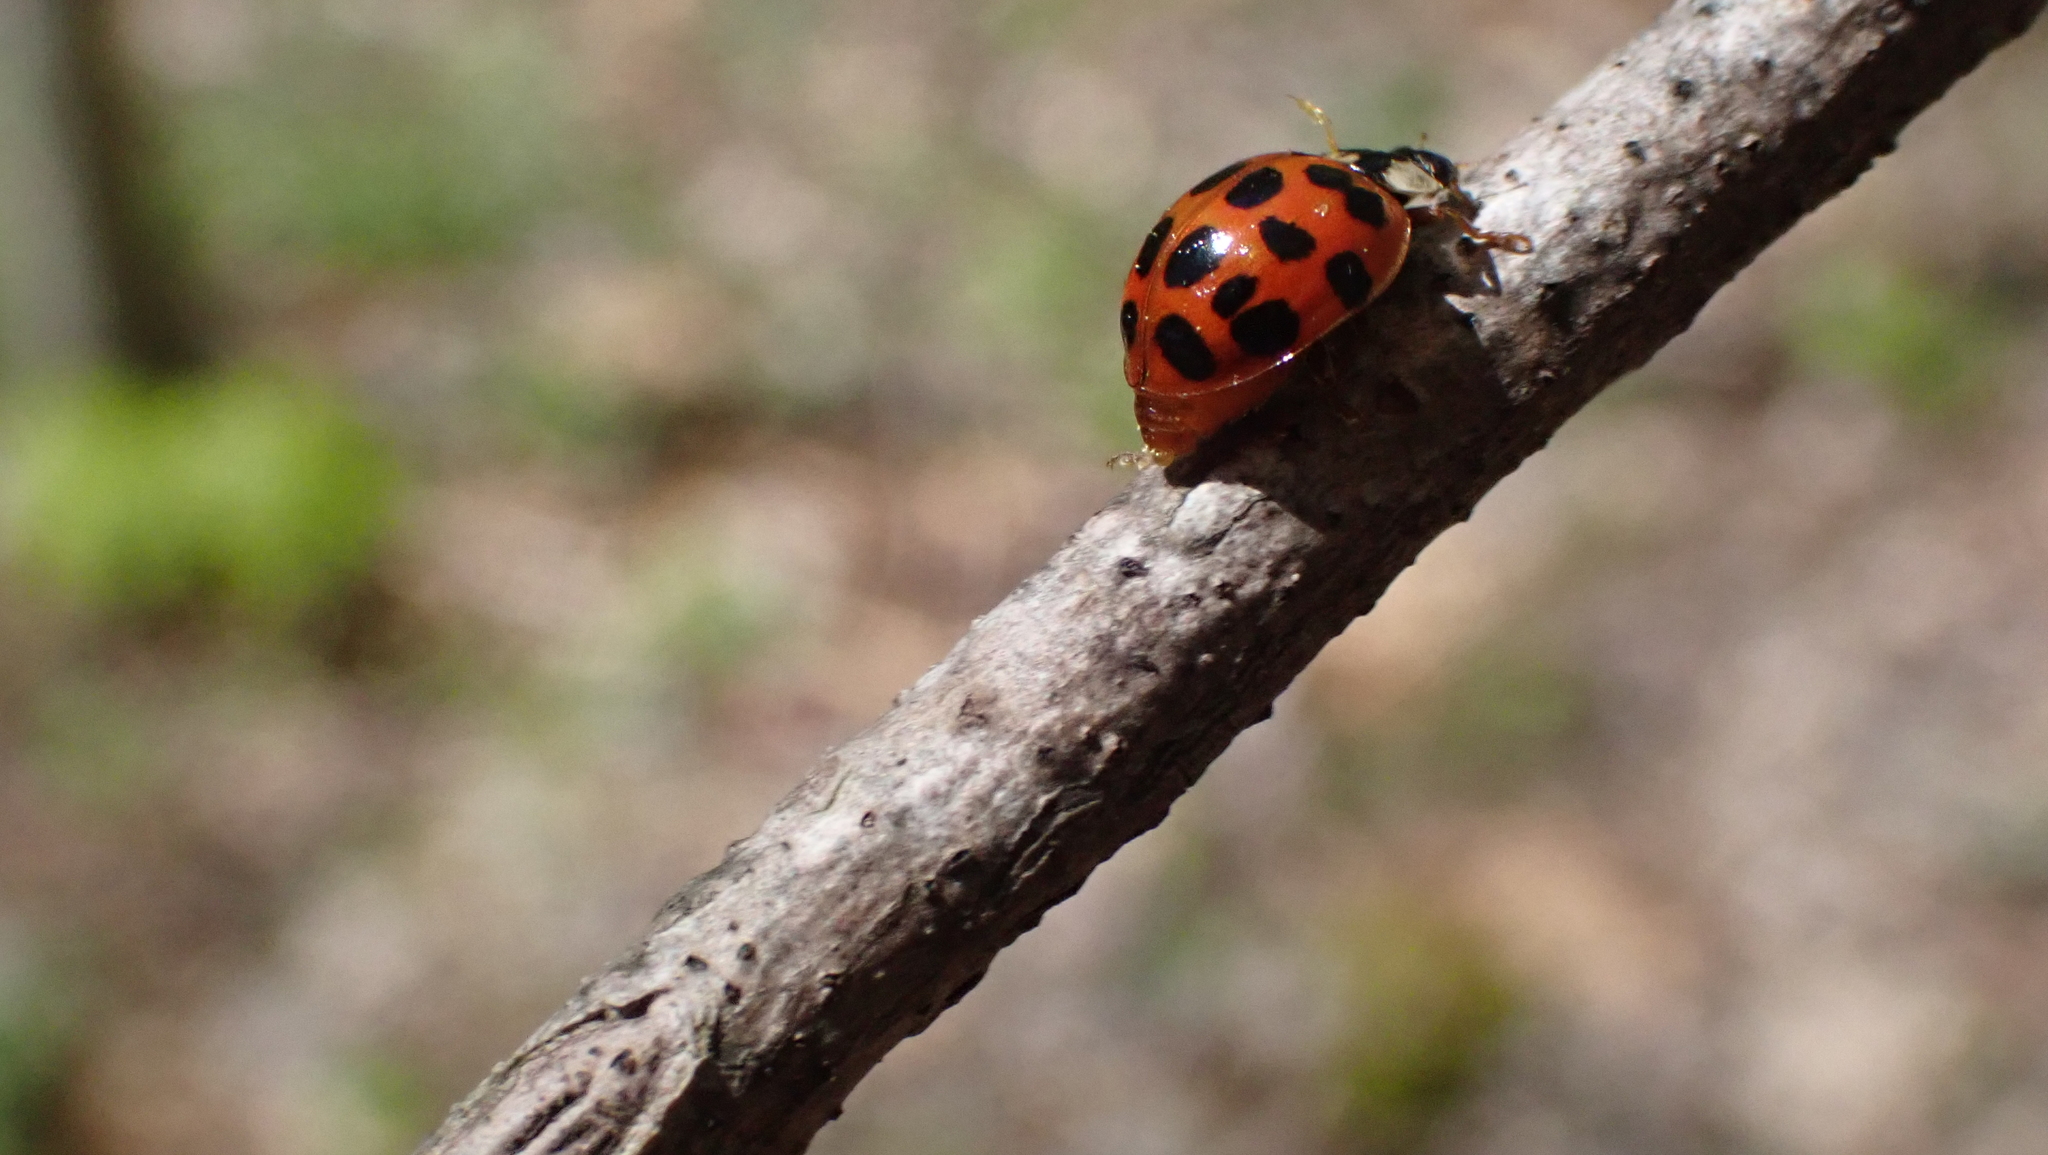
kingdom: Animalia
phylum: Arthropoda
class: Insecta
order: Coleoptera
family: Coccinellidae
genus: Harmonia
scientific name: Harmonia axyridis
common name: Harlequin ladybird
